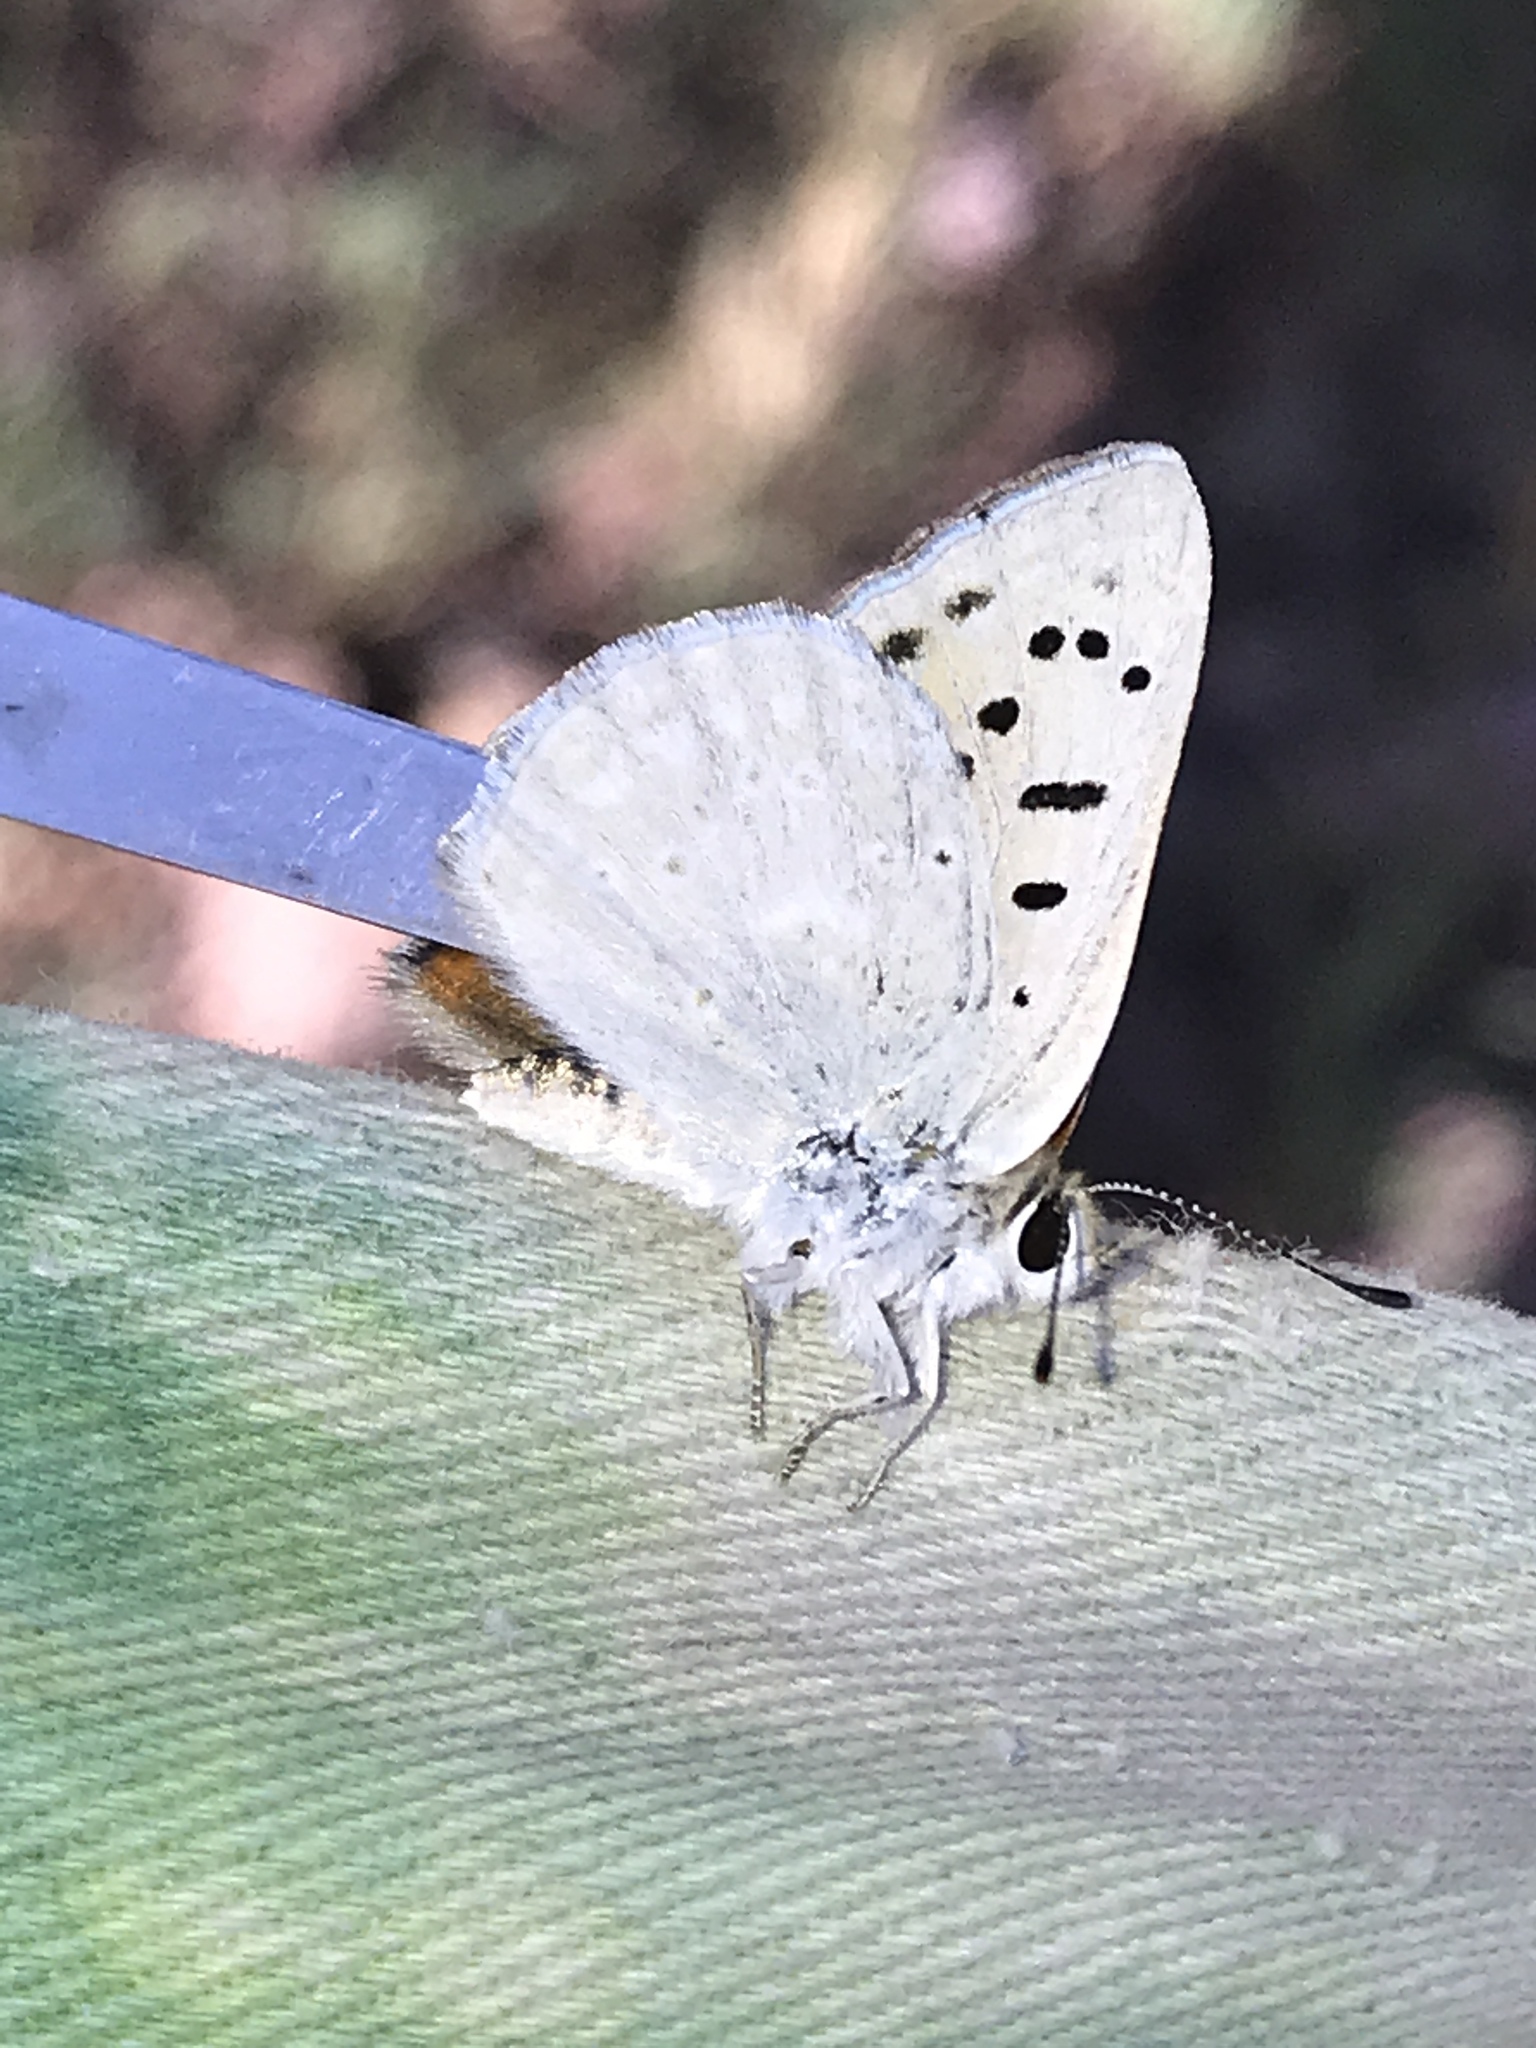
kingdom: Animalia
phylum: Arthropoda
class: Insecta
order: Lepidoptera
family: Lycaenidae
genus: Tharsalea
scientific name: Tharsalea rubidus
